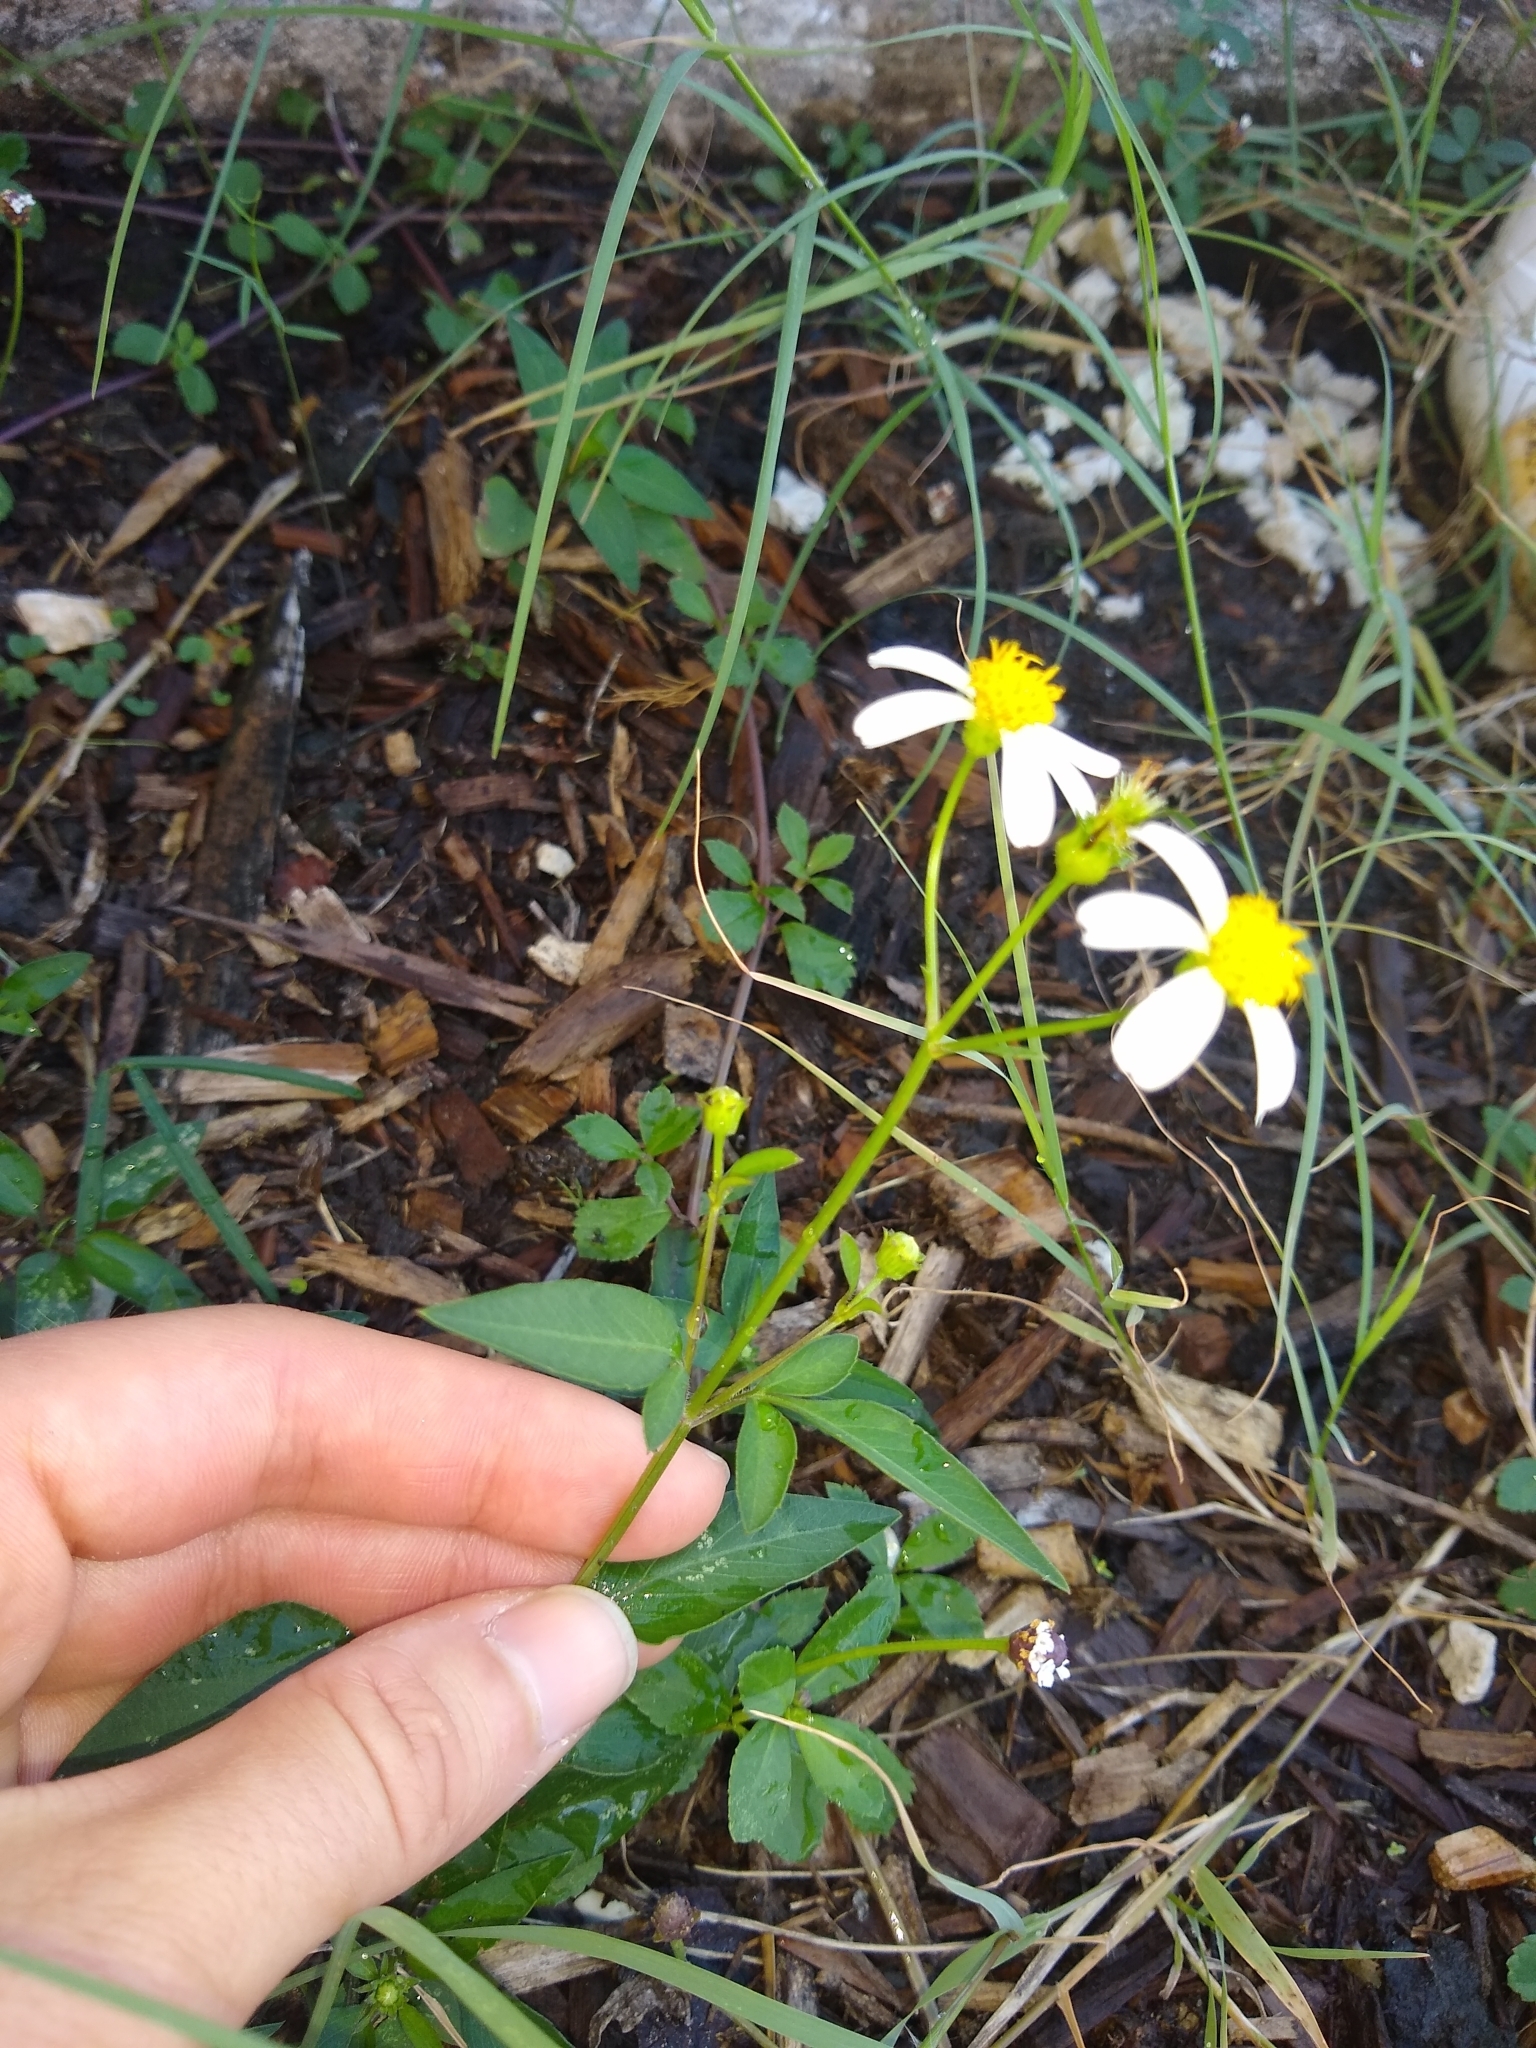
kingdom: Plantae
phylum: Tracheophyta
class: Magnoliopsida
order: Asterales
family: Asteraceae
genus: Bidens
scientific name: Bidens alba
